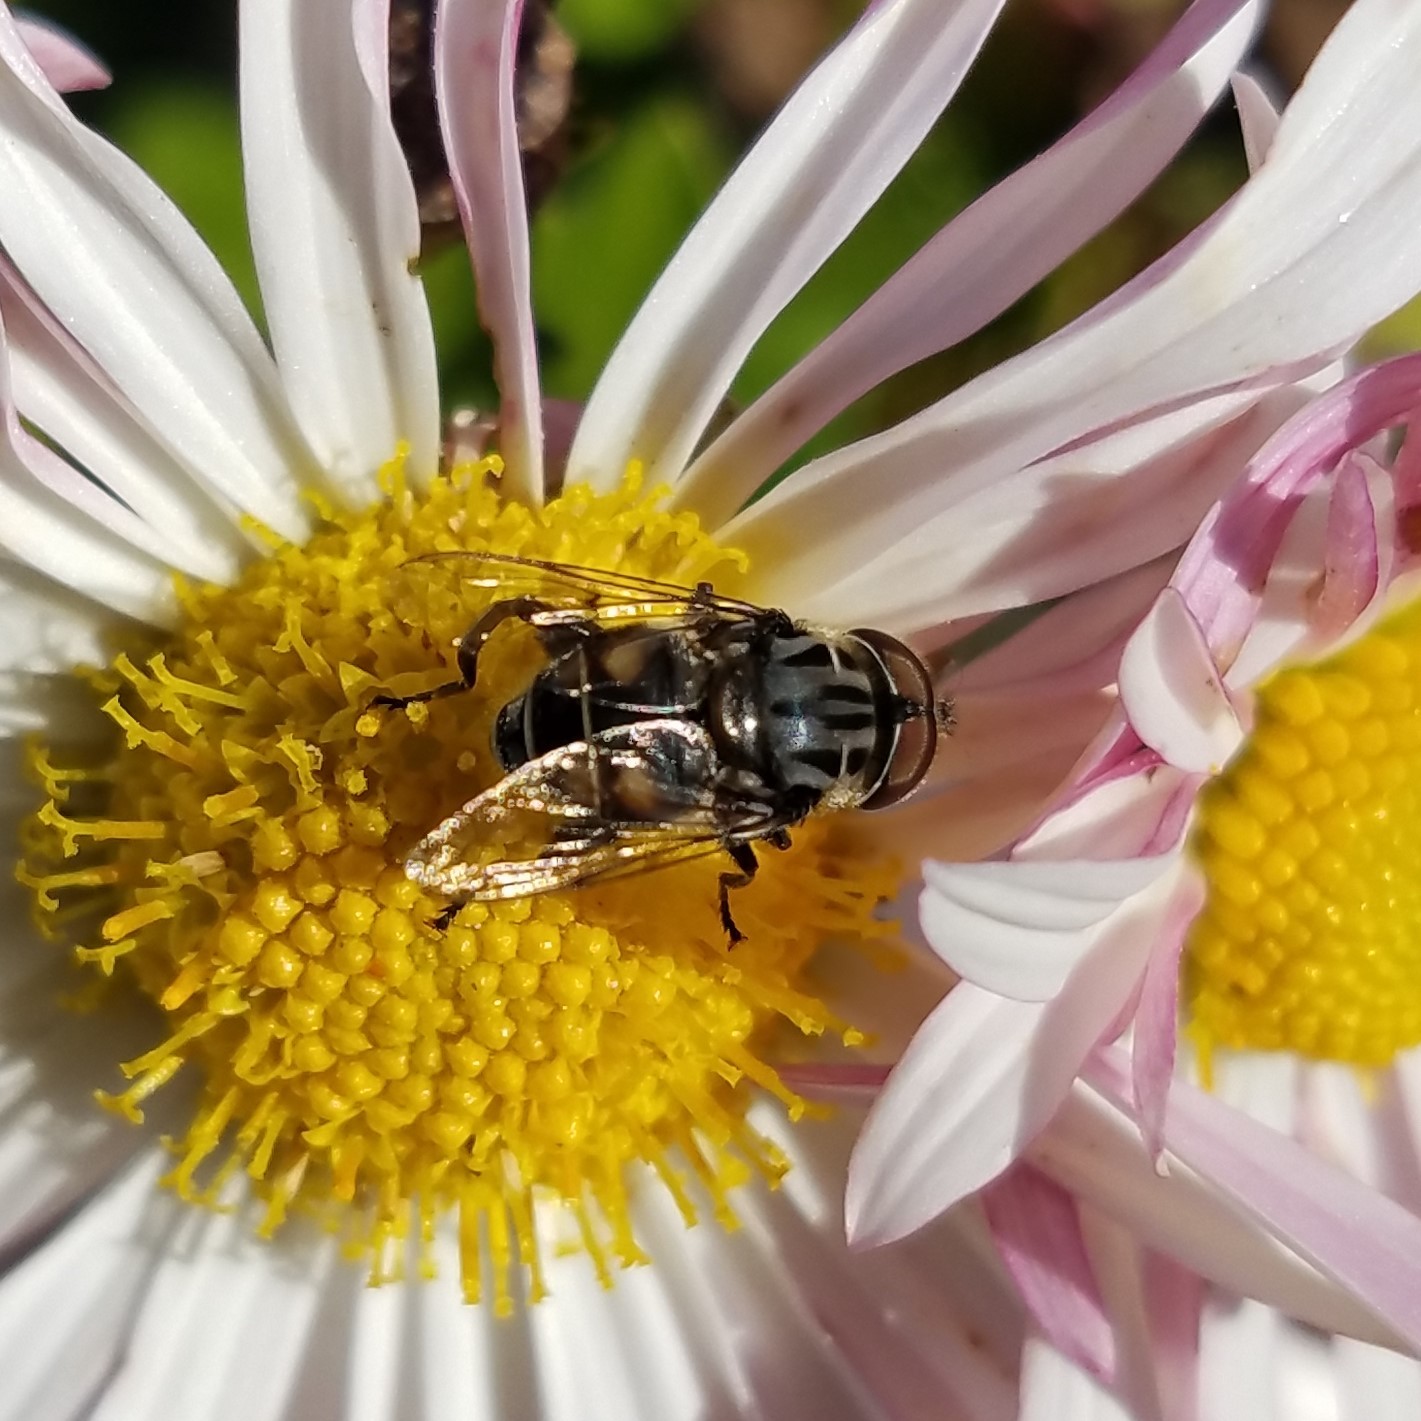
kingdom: Animalia
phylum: Arthropoda
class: Insecta
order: Diptera
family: Syrphidae
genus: Palpada
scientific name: Palpada furcata
